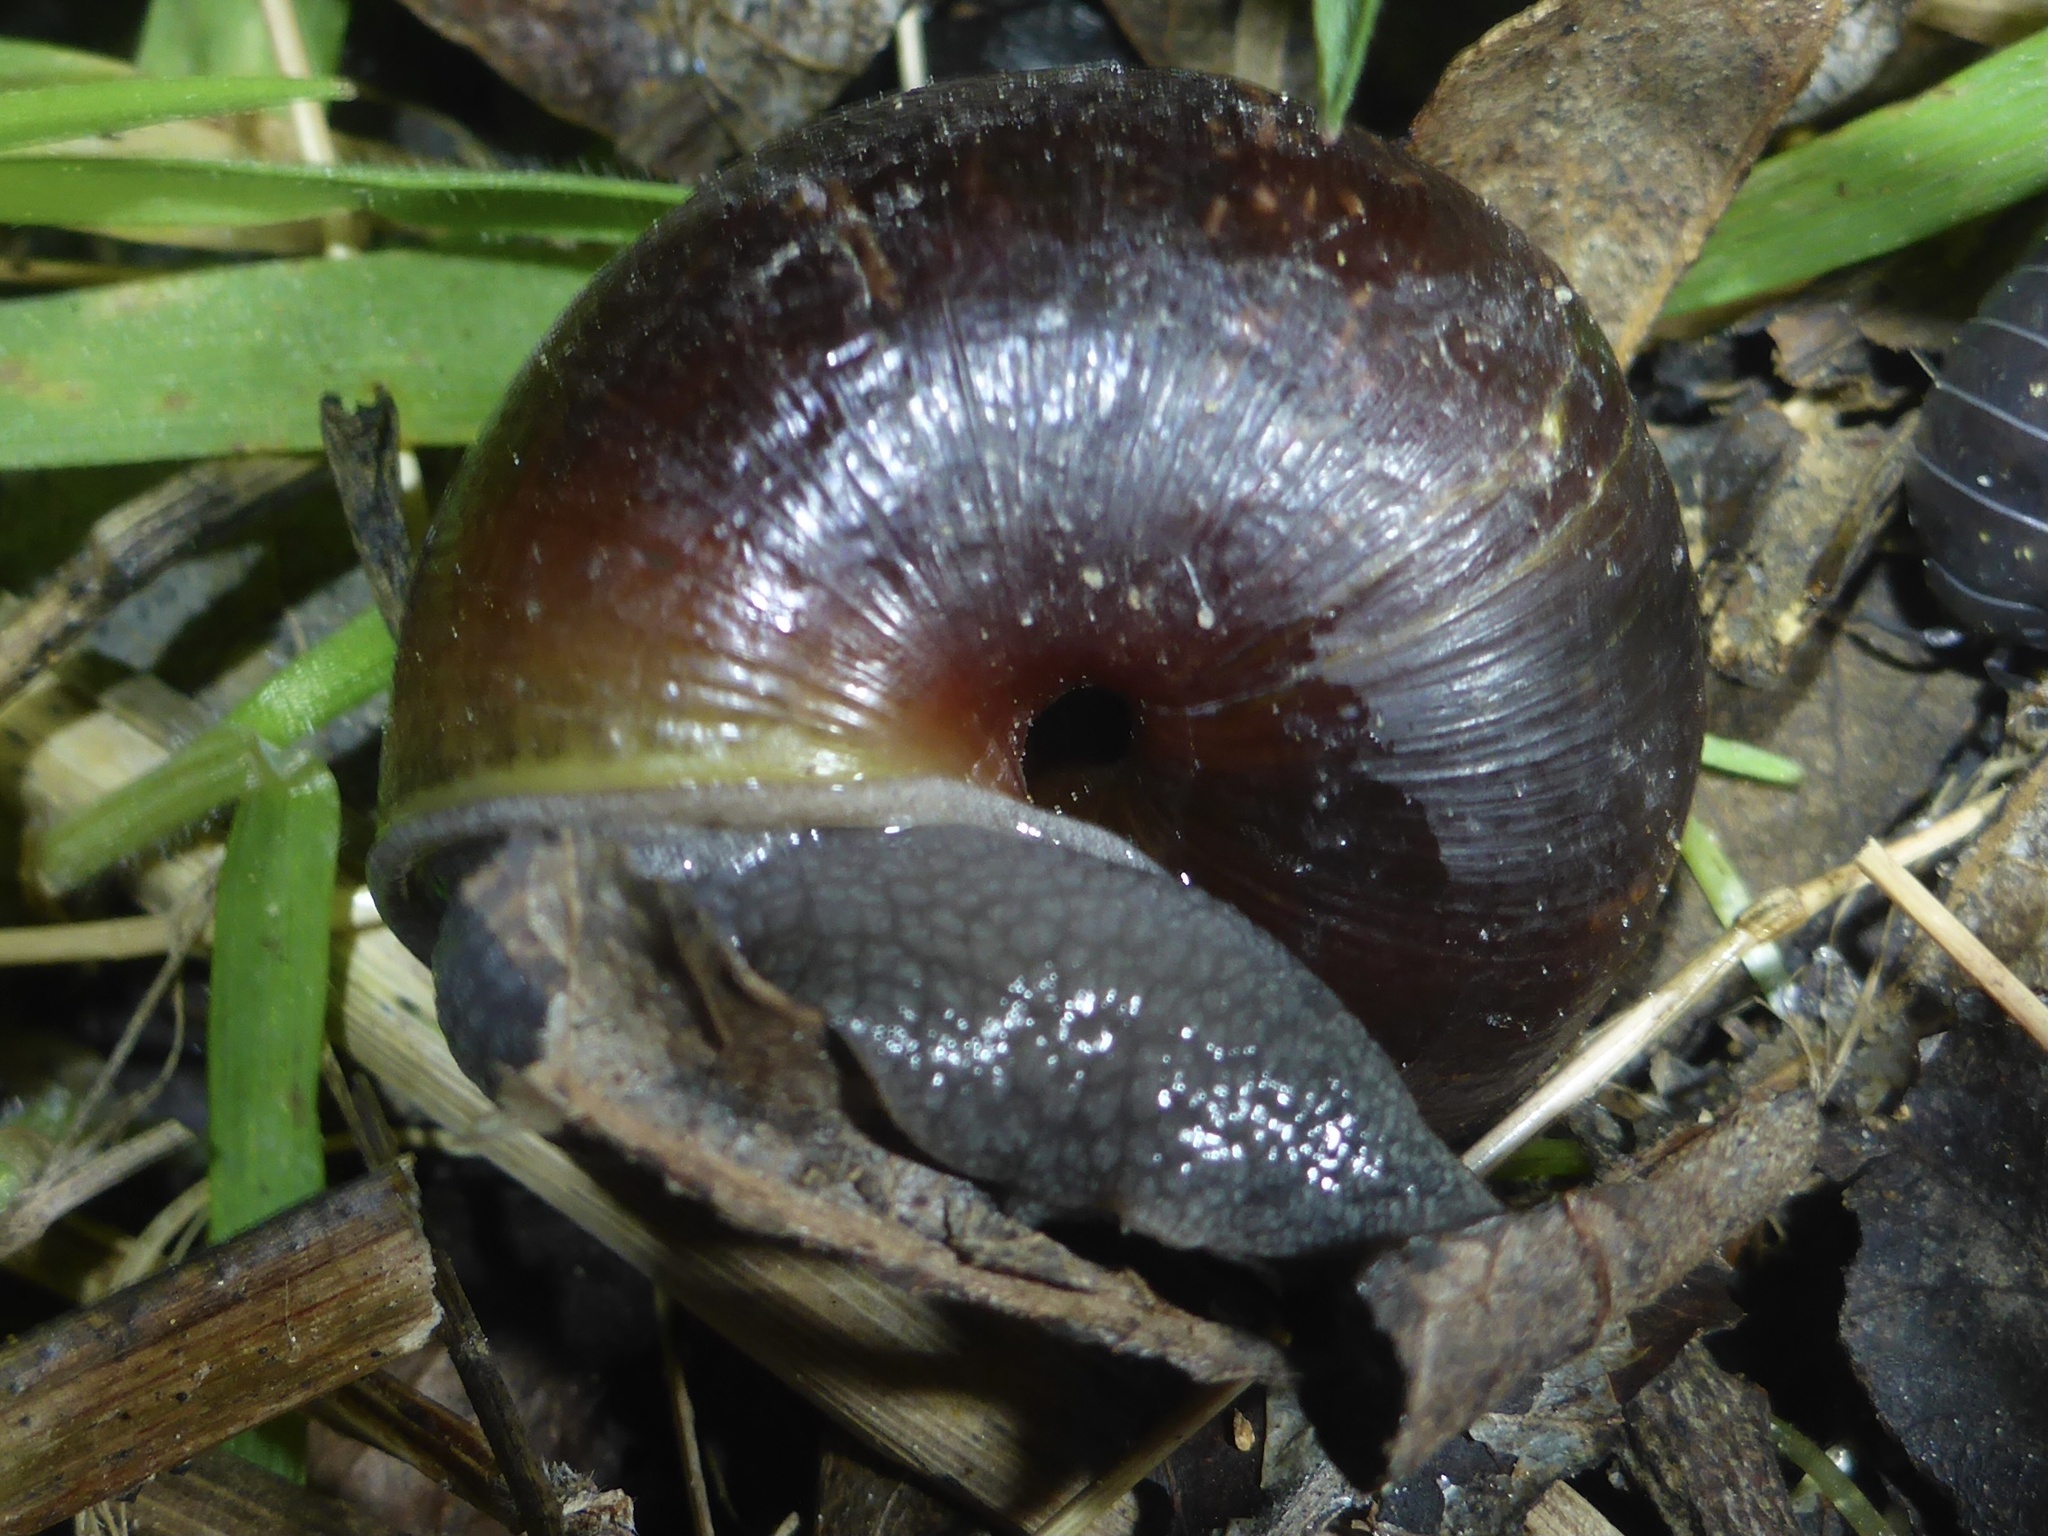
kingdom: Animalia
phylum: Mollusca
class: Gastropoda
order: Stylommatophora
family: Xanthonychidae
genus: Helminthoglypta
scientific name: Helminthoglypta arrosa
